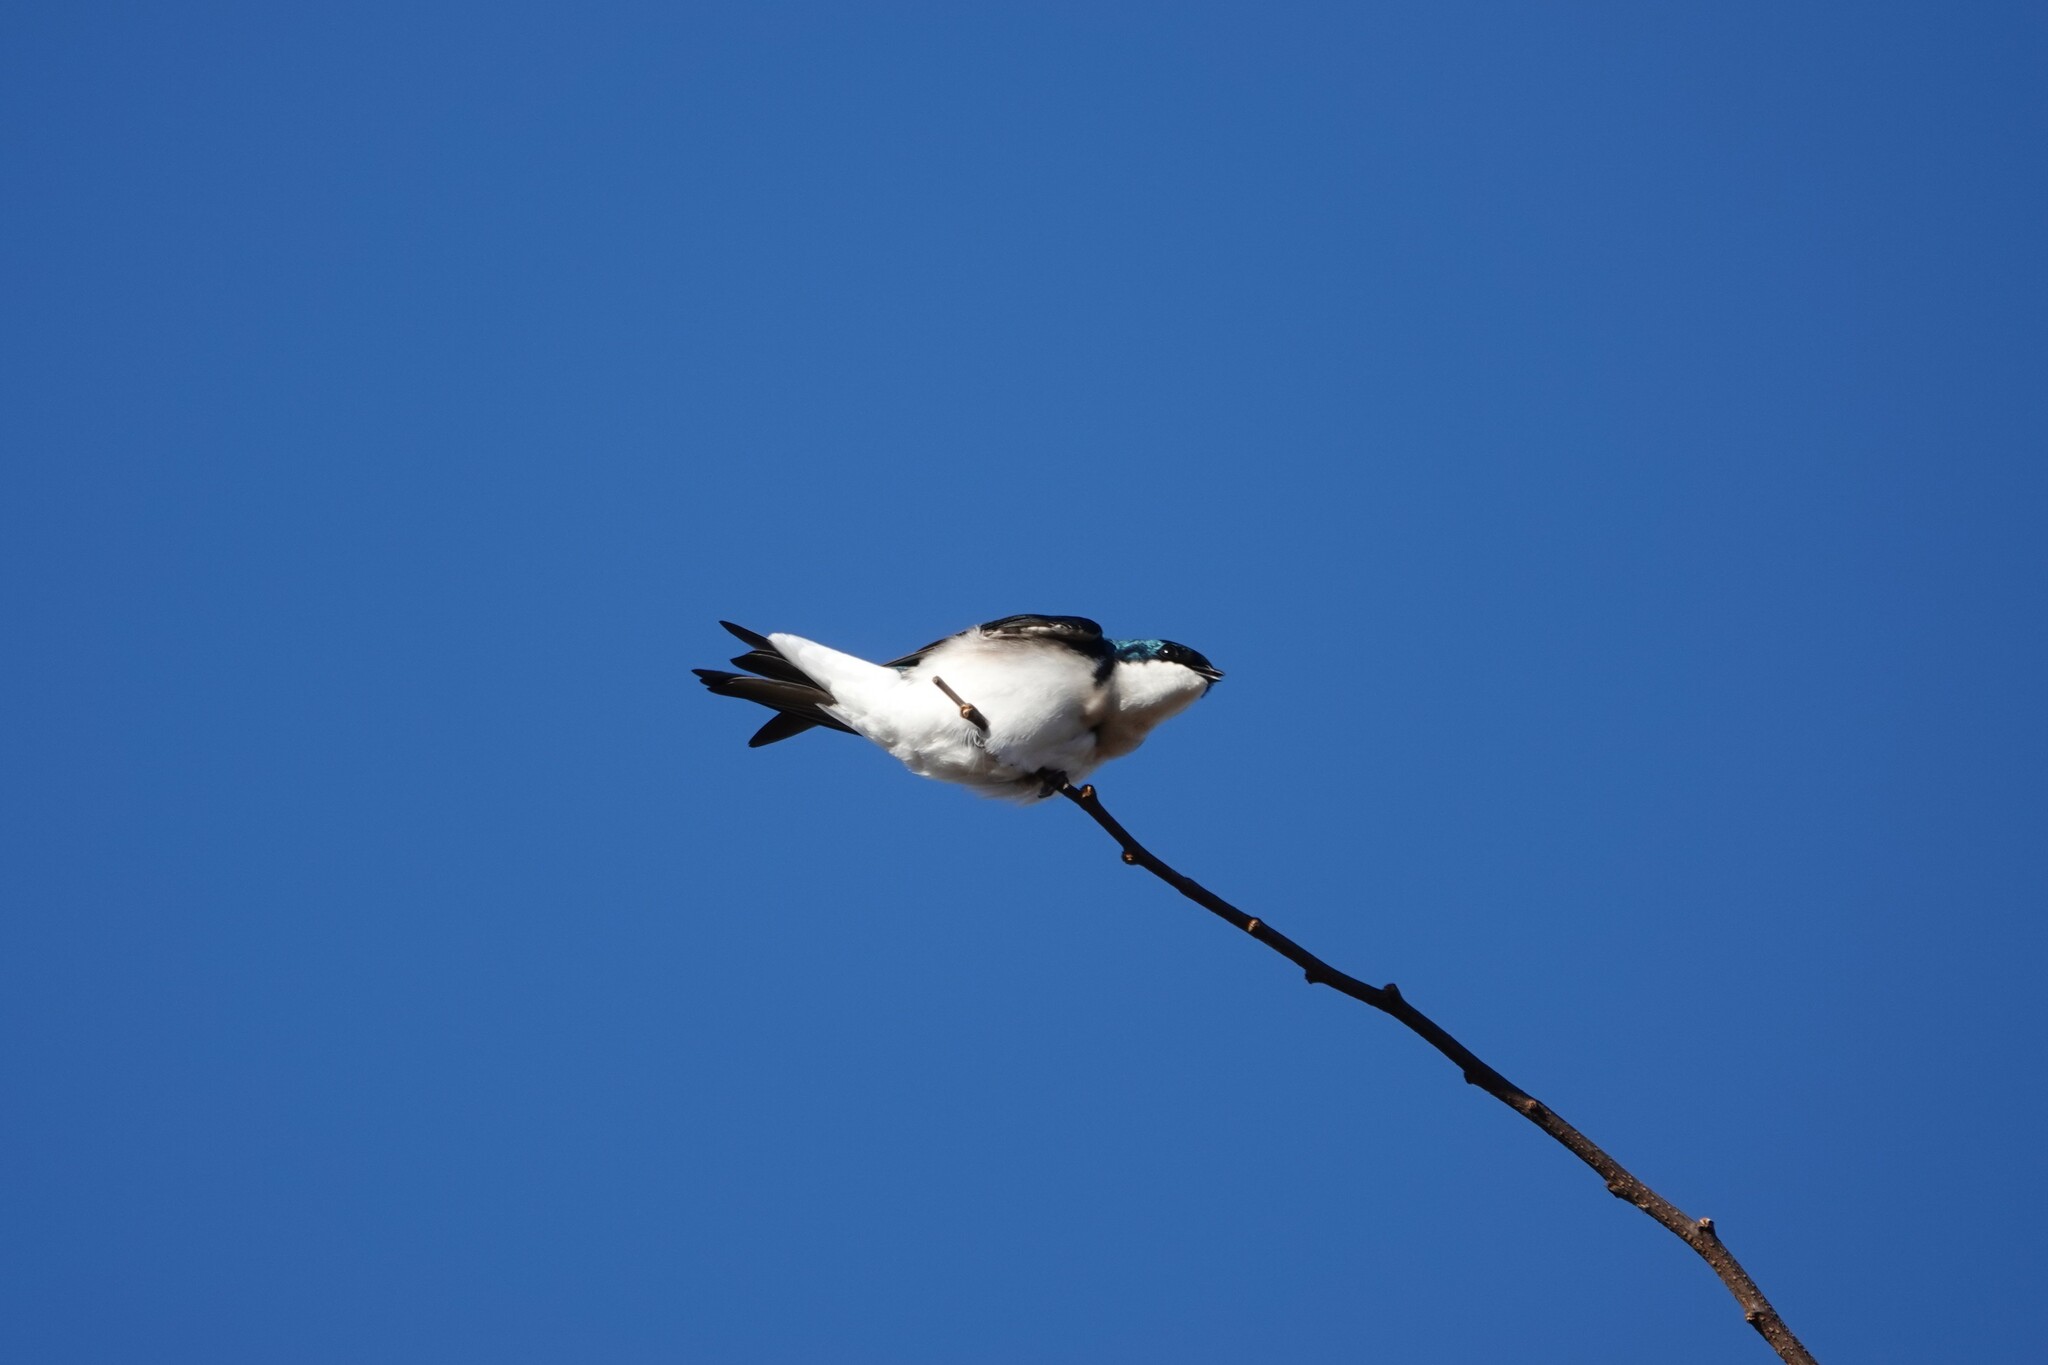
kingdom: Animalia
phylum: Chordata
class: Aves
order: Passeriformes
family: Hirundinidae
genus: Tachycineta
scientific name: Tachycineta bicolor
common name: Tree swallow
